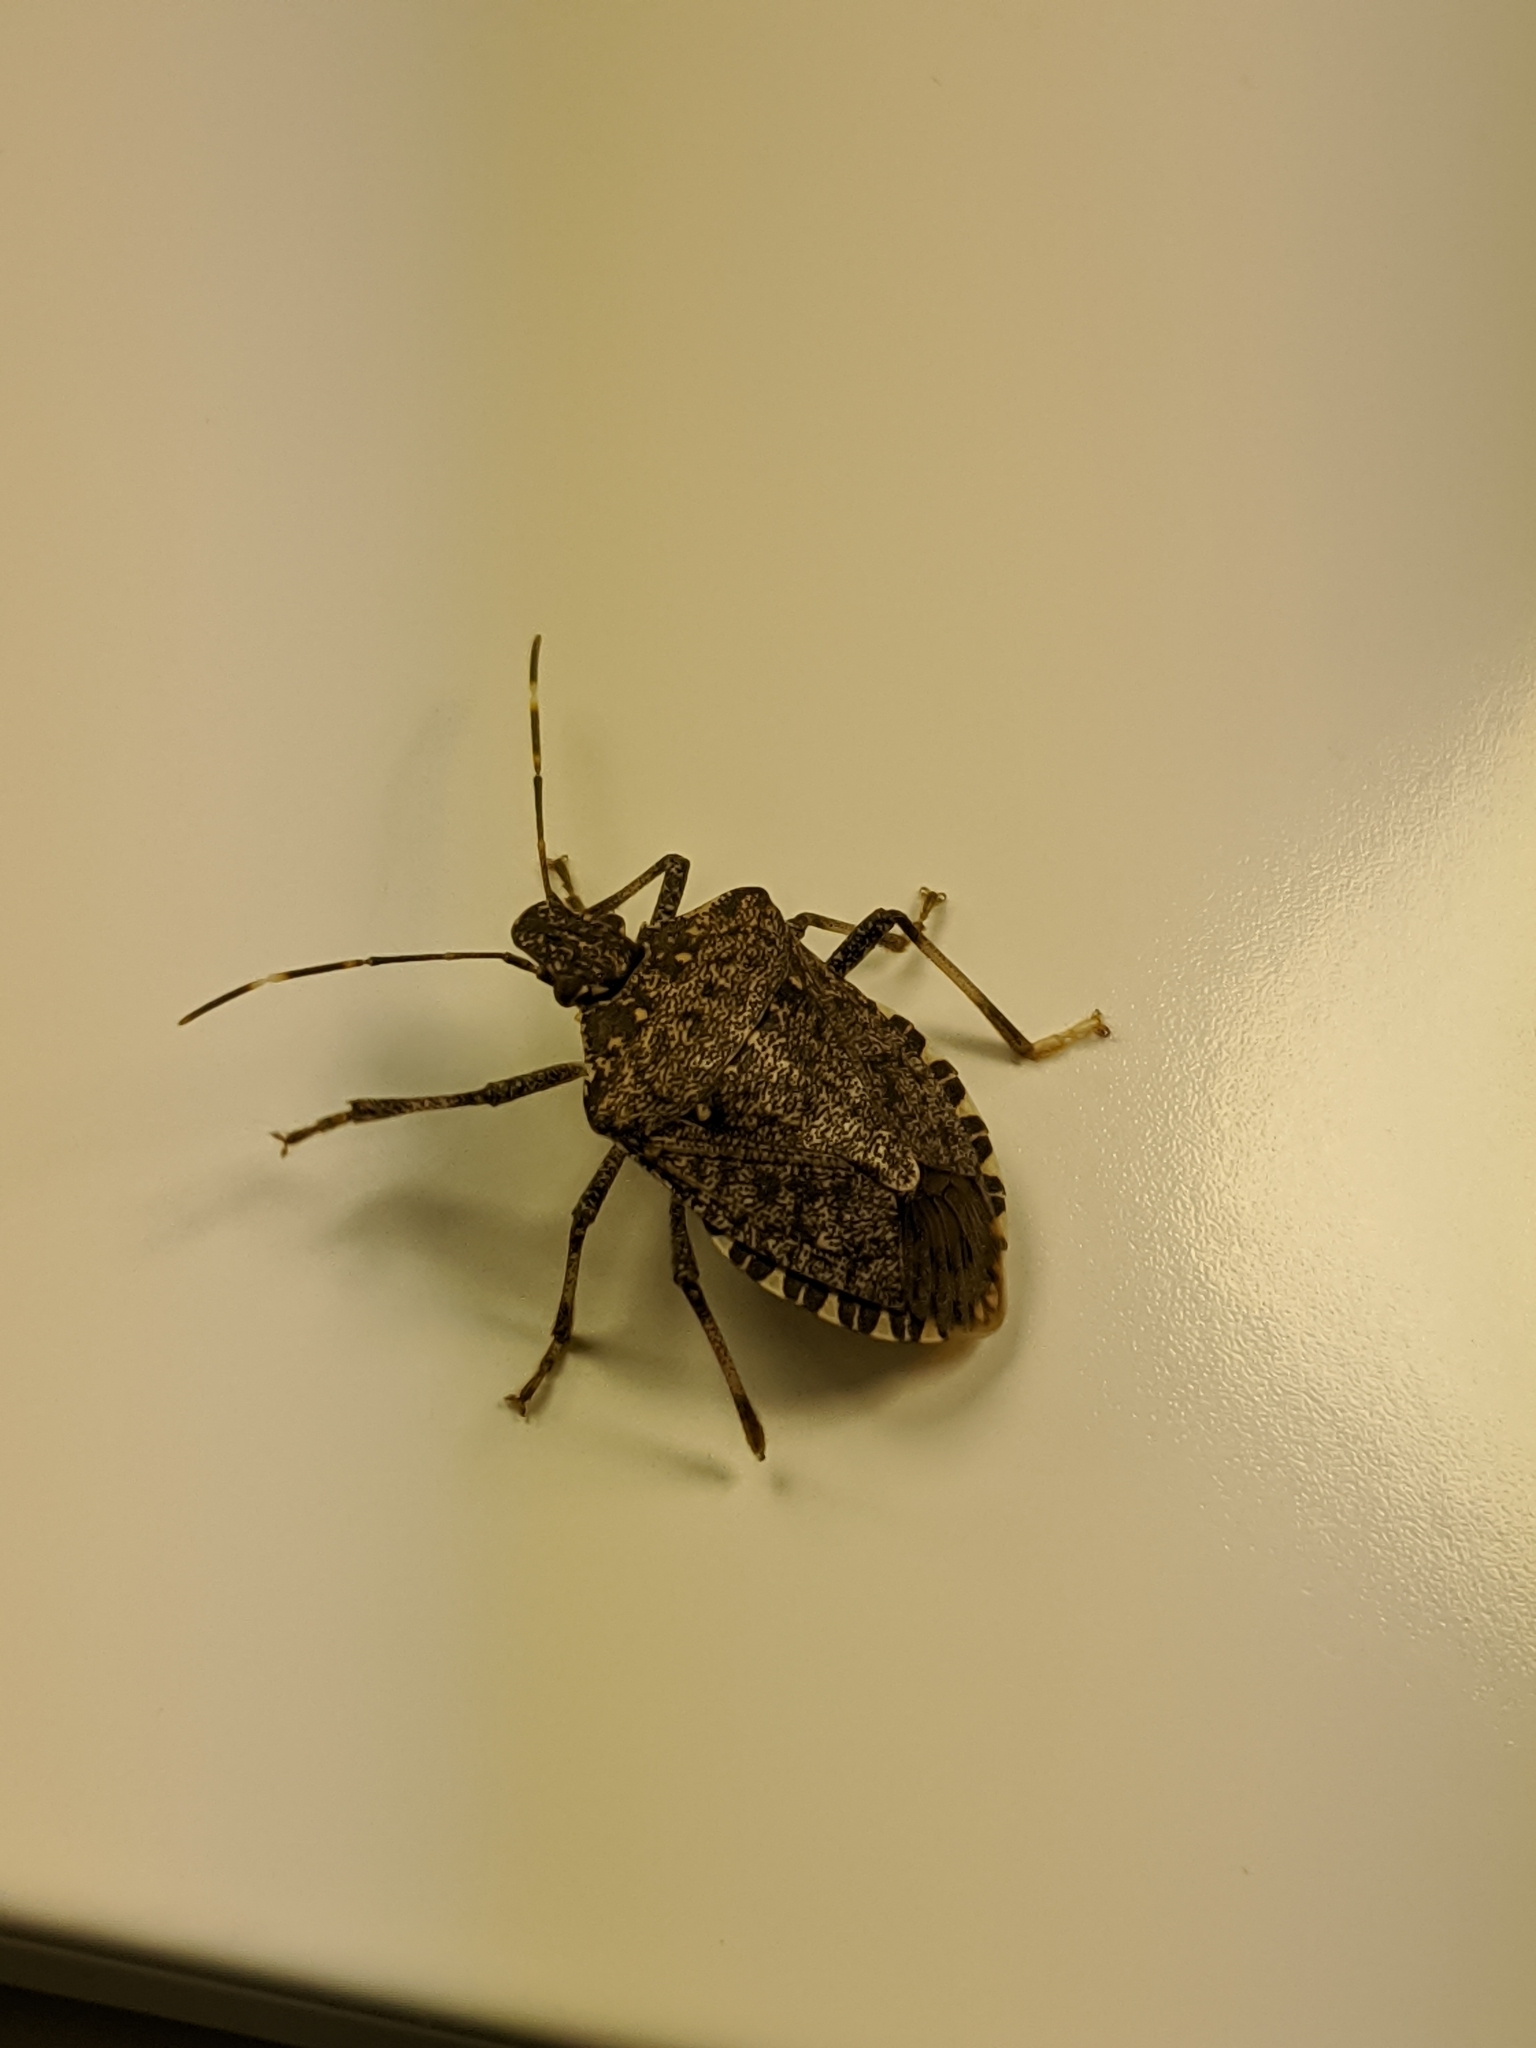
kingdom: Animalia
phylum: Arthropoda
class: Insecta
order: Hemiptera
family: Pentatomidae
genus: Halyomorpha
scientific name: Halyomorpha halys
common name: Brown marmorated stink bug
